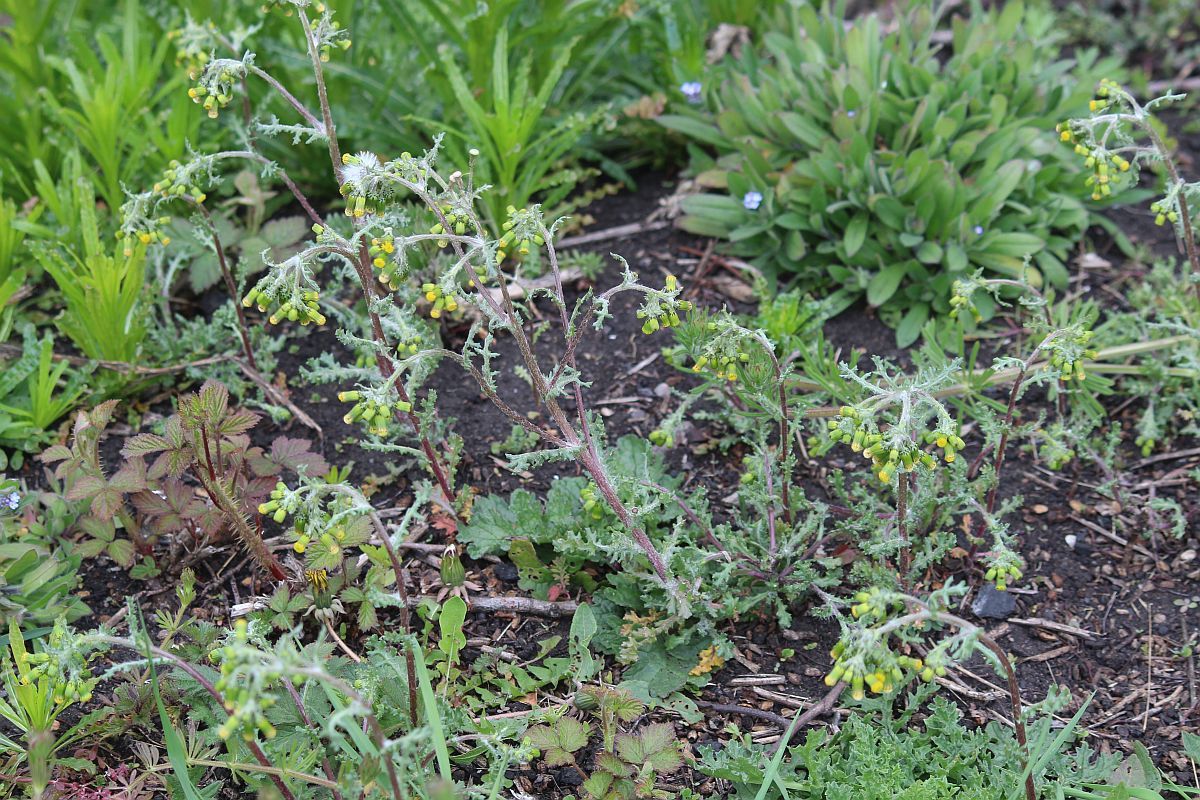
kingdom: Plantae
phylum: Tracheophyta
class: Magnoliopsida
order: Asterales
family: Asteraceae
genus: Senecio
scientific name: Senecio vulgaris
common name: Old-man-in-the-spring
